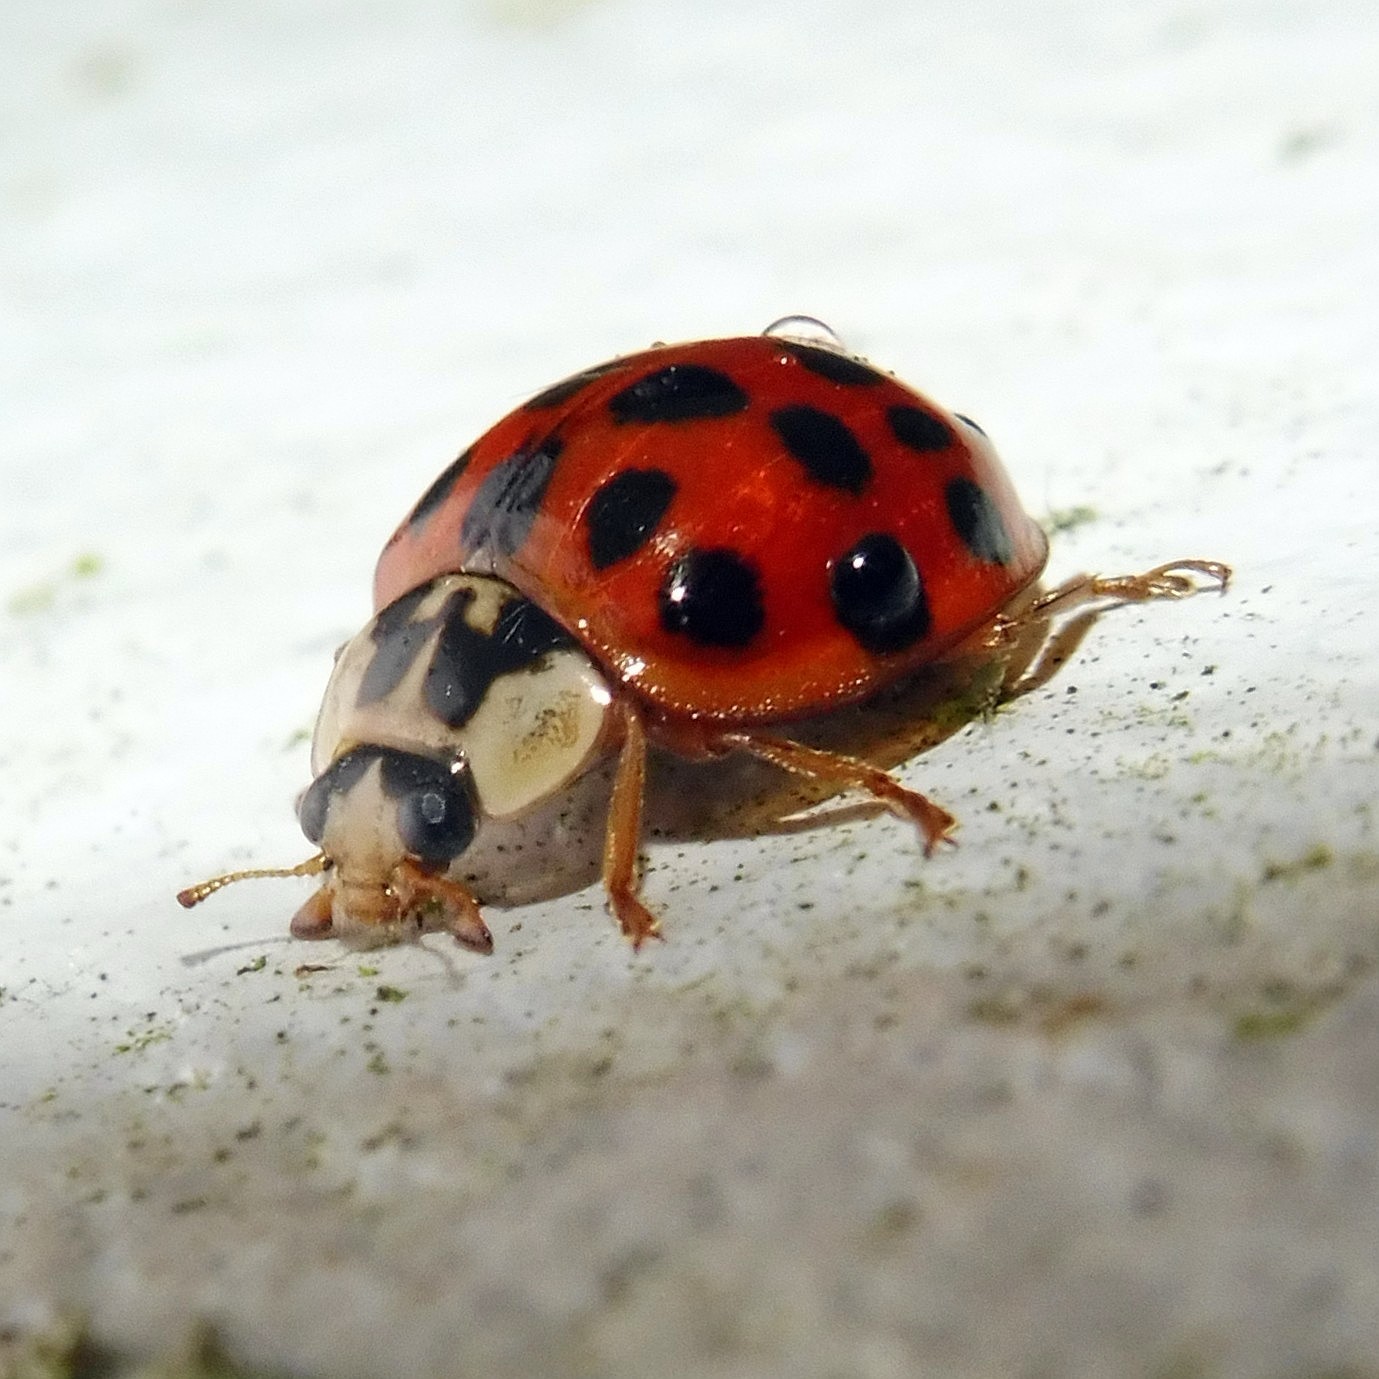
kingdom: Animalia
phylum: Arthropoda
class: Insecta
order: Coleoptera
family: Coccinellidae
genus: Harmonia
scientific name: Harmonia axyridis
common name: Harlequin ladybird
